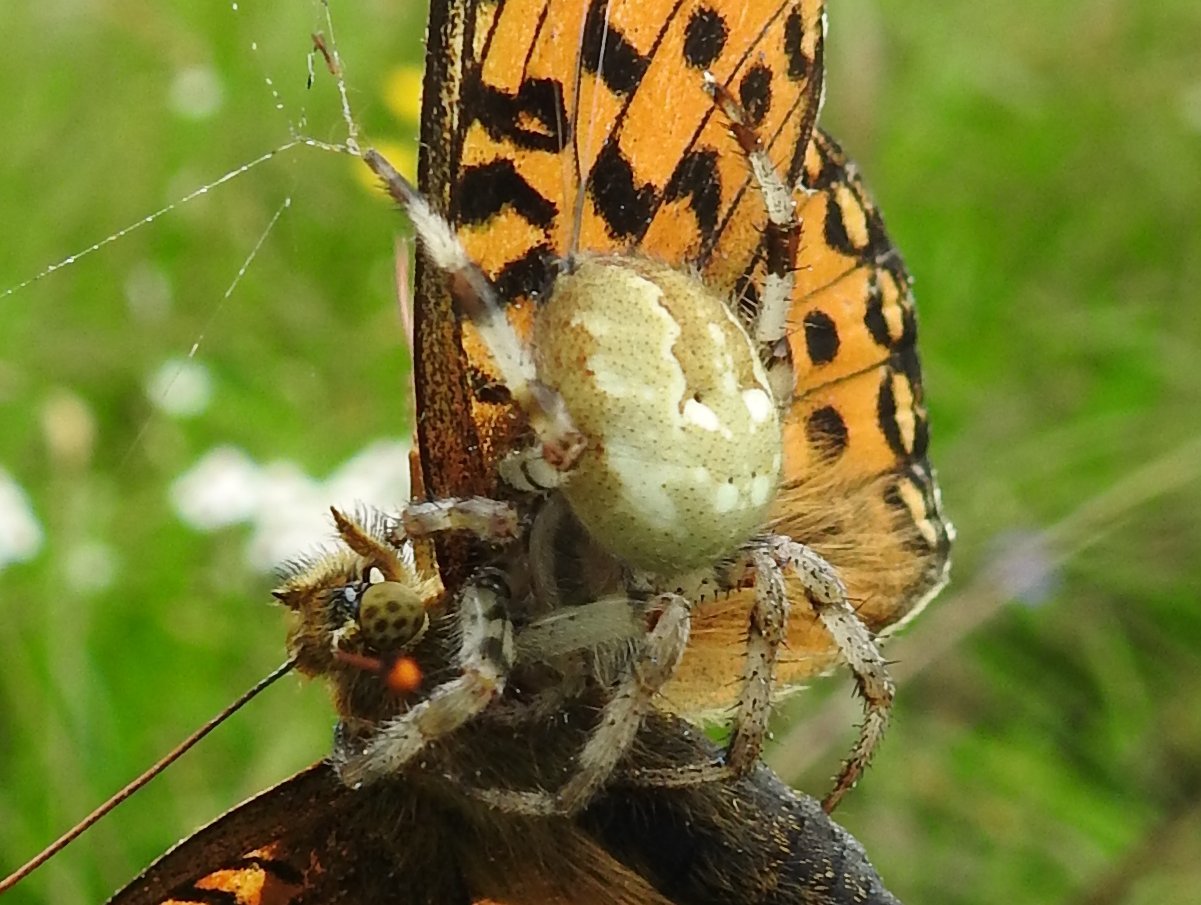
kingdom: Animalia
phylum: Arthropoda
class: Arachnida
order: Araneae
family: Araneidae
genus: Araneus
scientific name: Araneus quadratus
